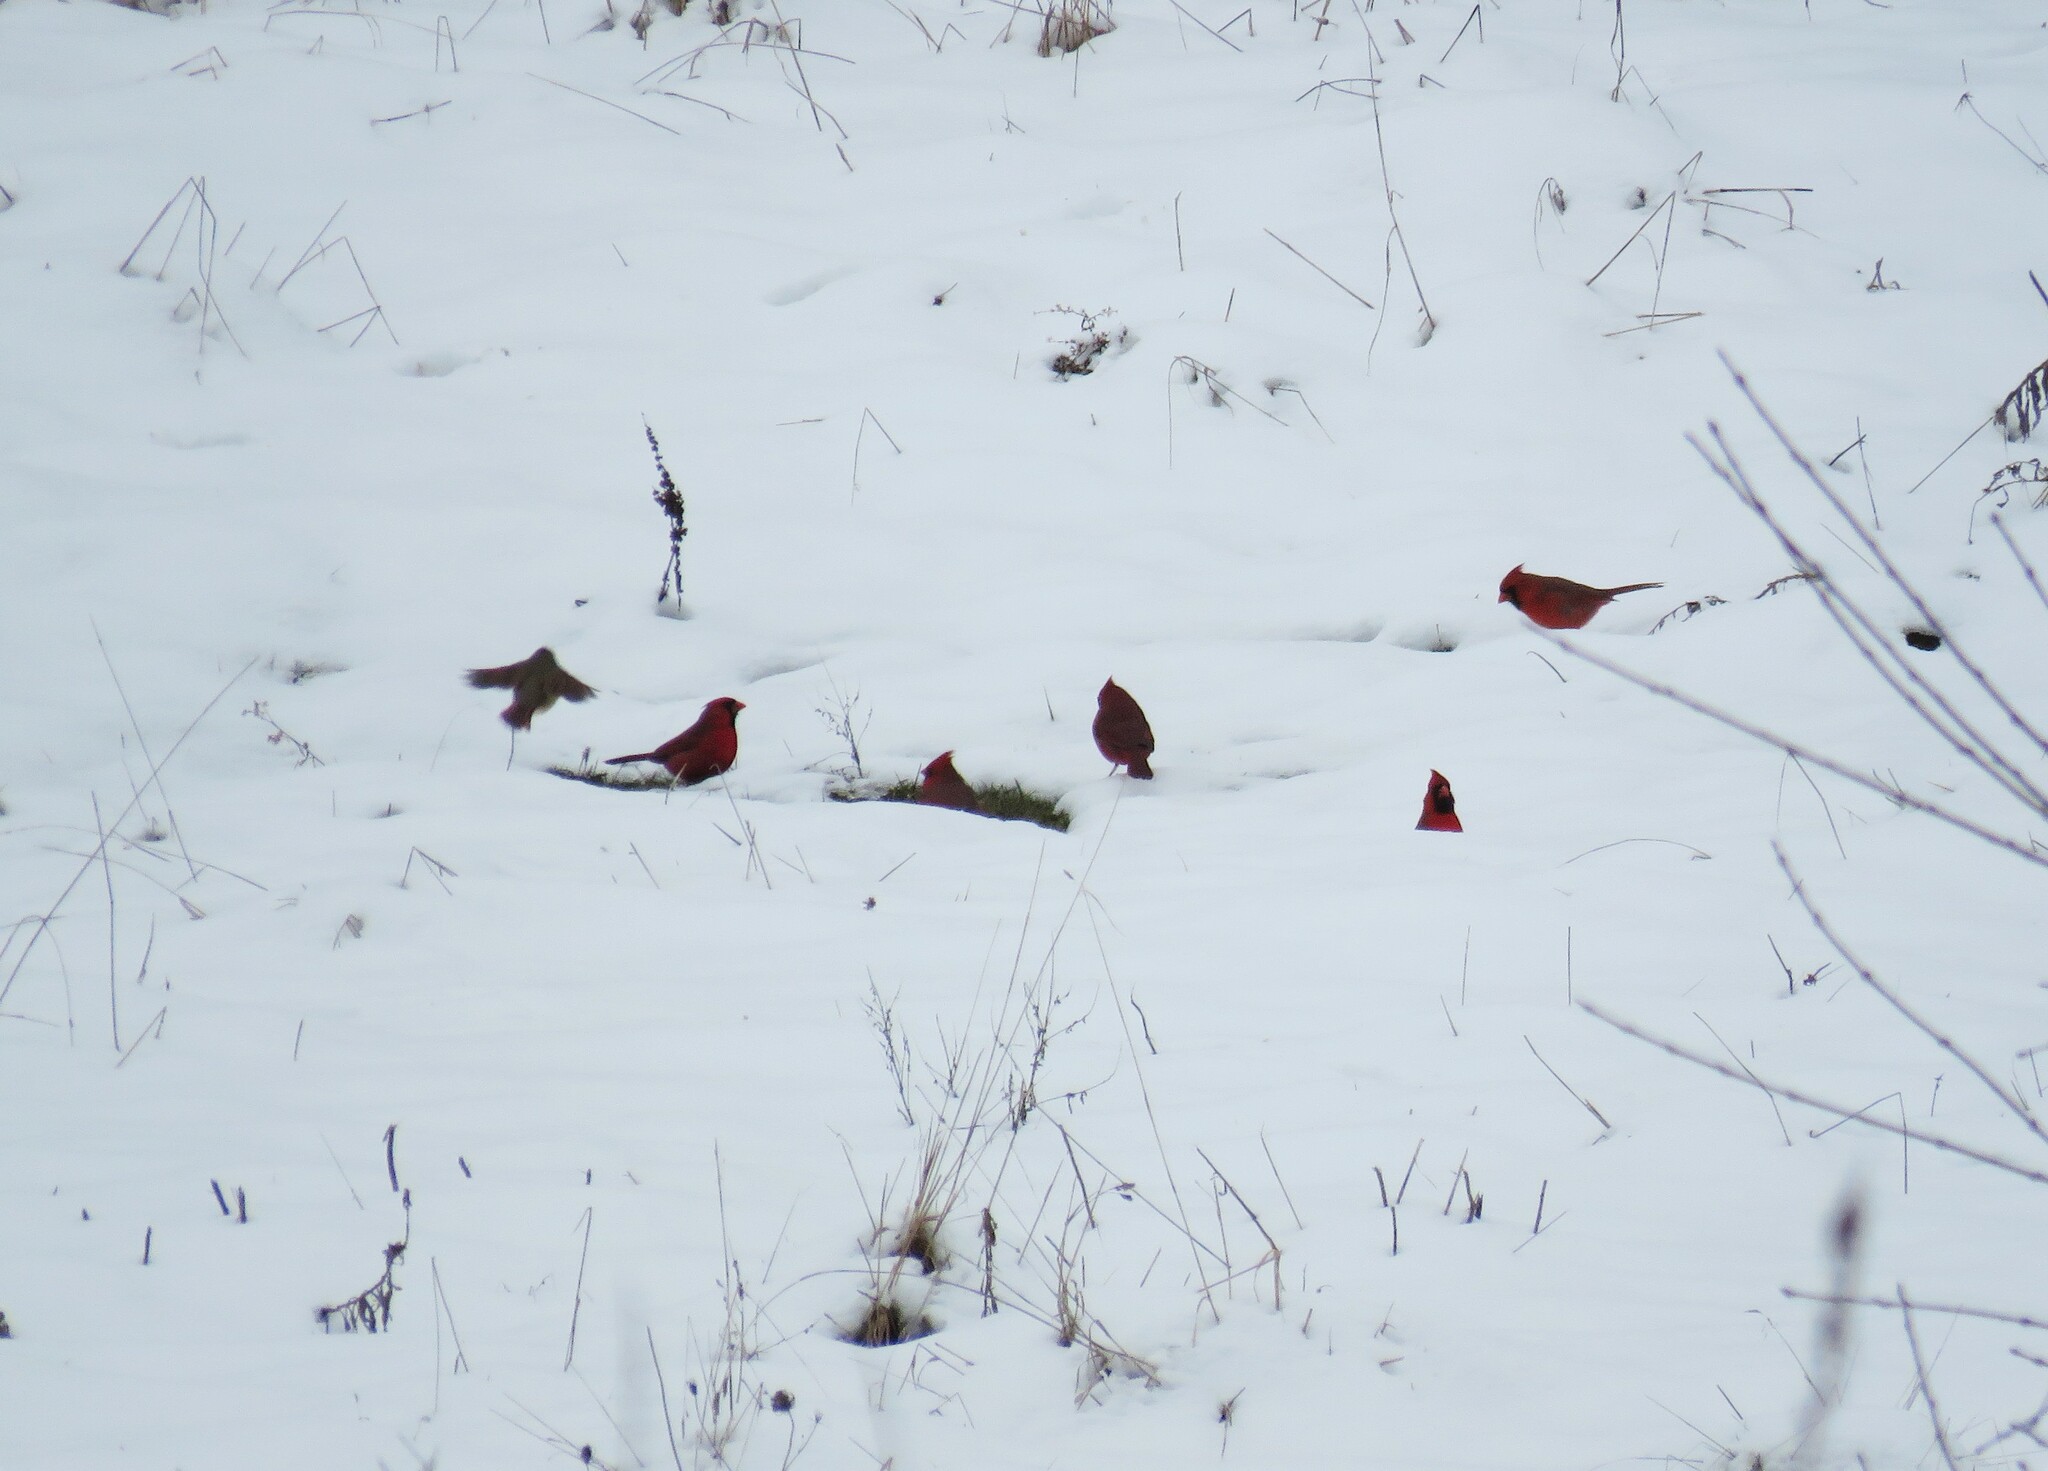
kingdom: Animalia
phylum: Chordata
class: Aves
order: Passeriformes
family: Cardinalidae
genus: Cardinalis
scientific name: Cardinalis cardinalis
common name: Northern cardinal
